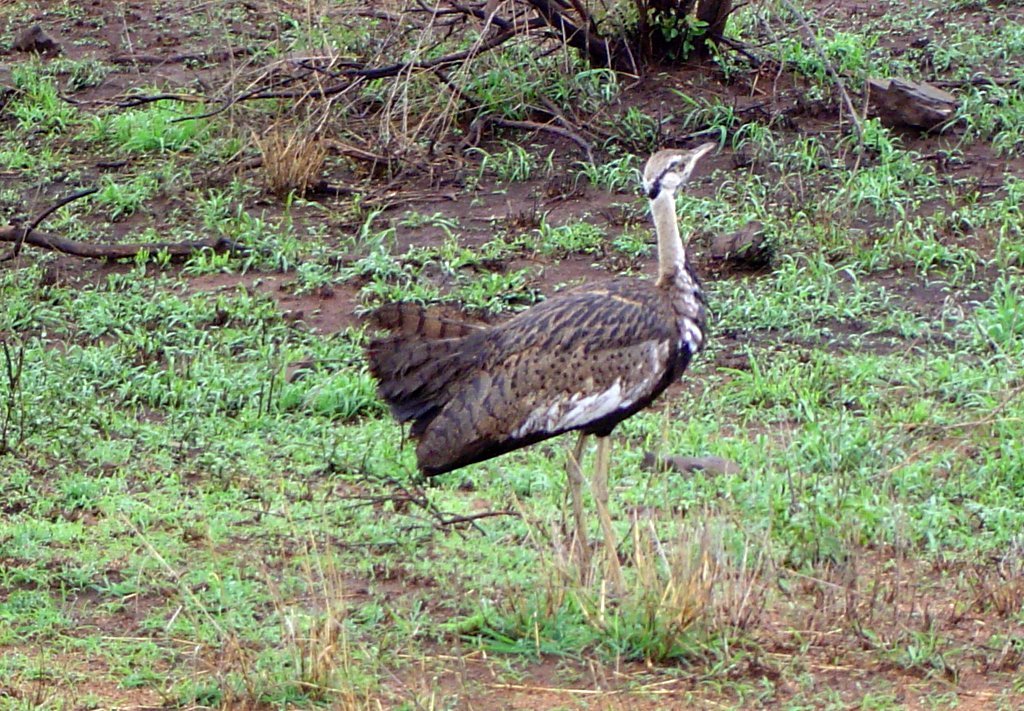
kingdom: Animalia
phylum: Chordata
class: Aves
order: Otidiformes
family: Otididae
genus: Lissotis
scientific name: Lissotis melanogaster
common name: Black-bellied bustard
